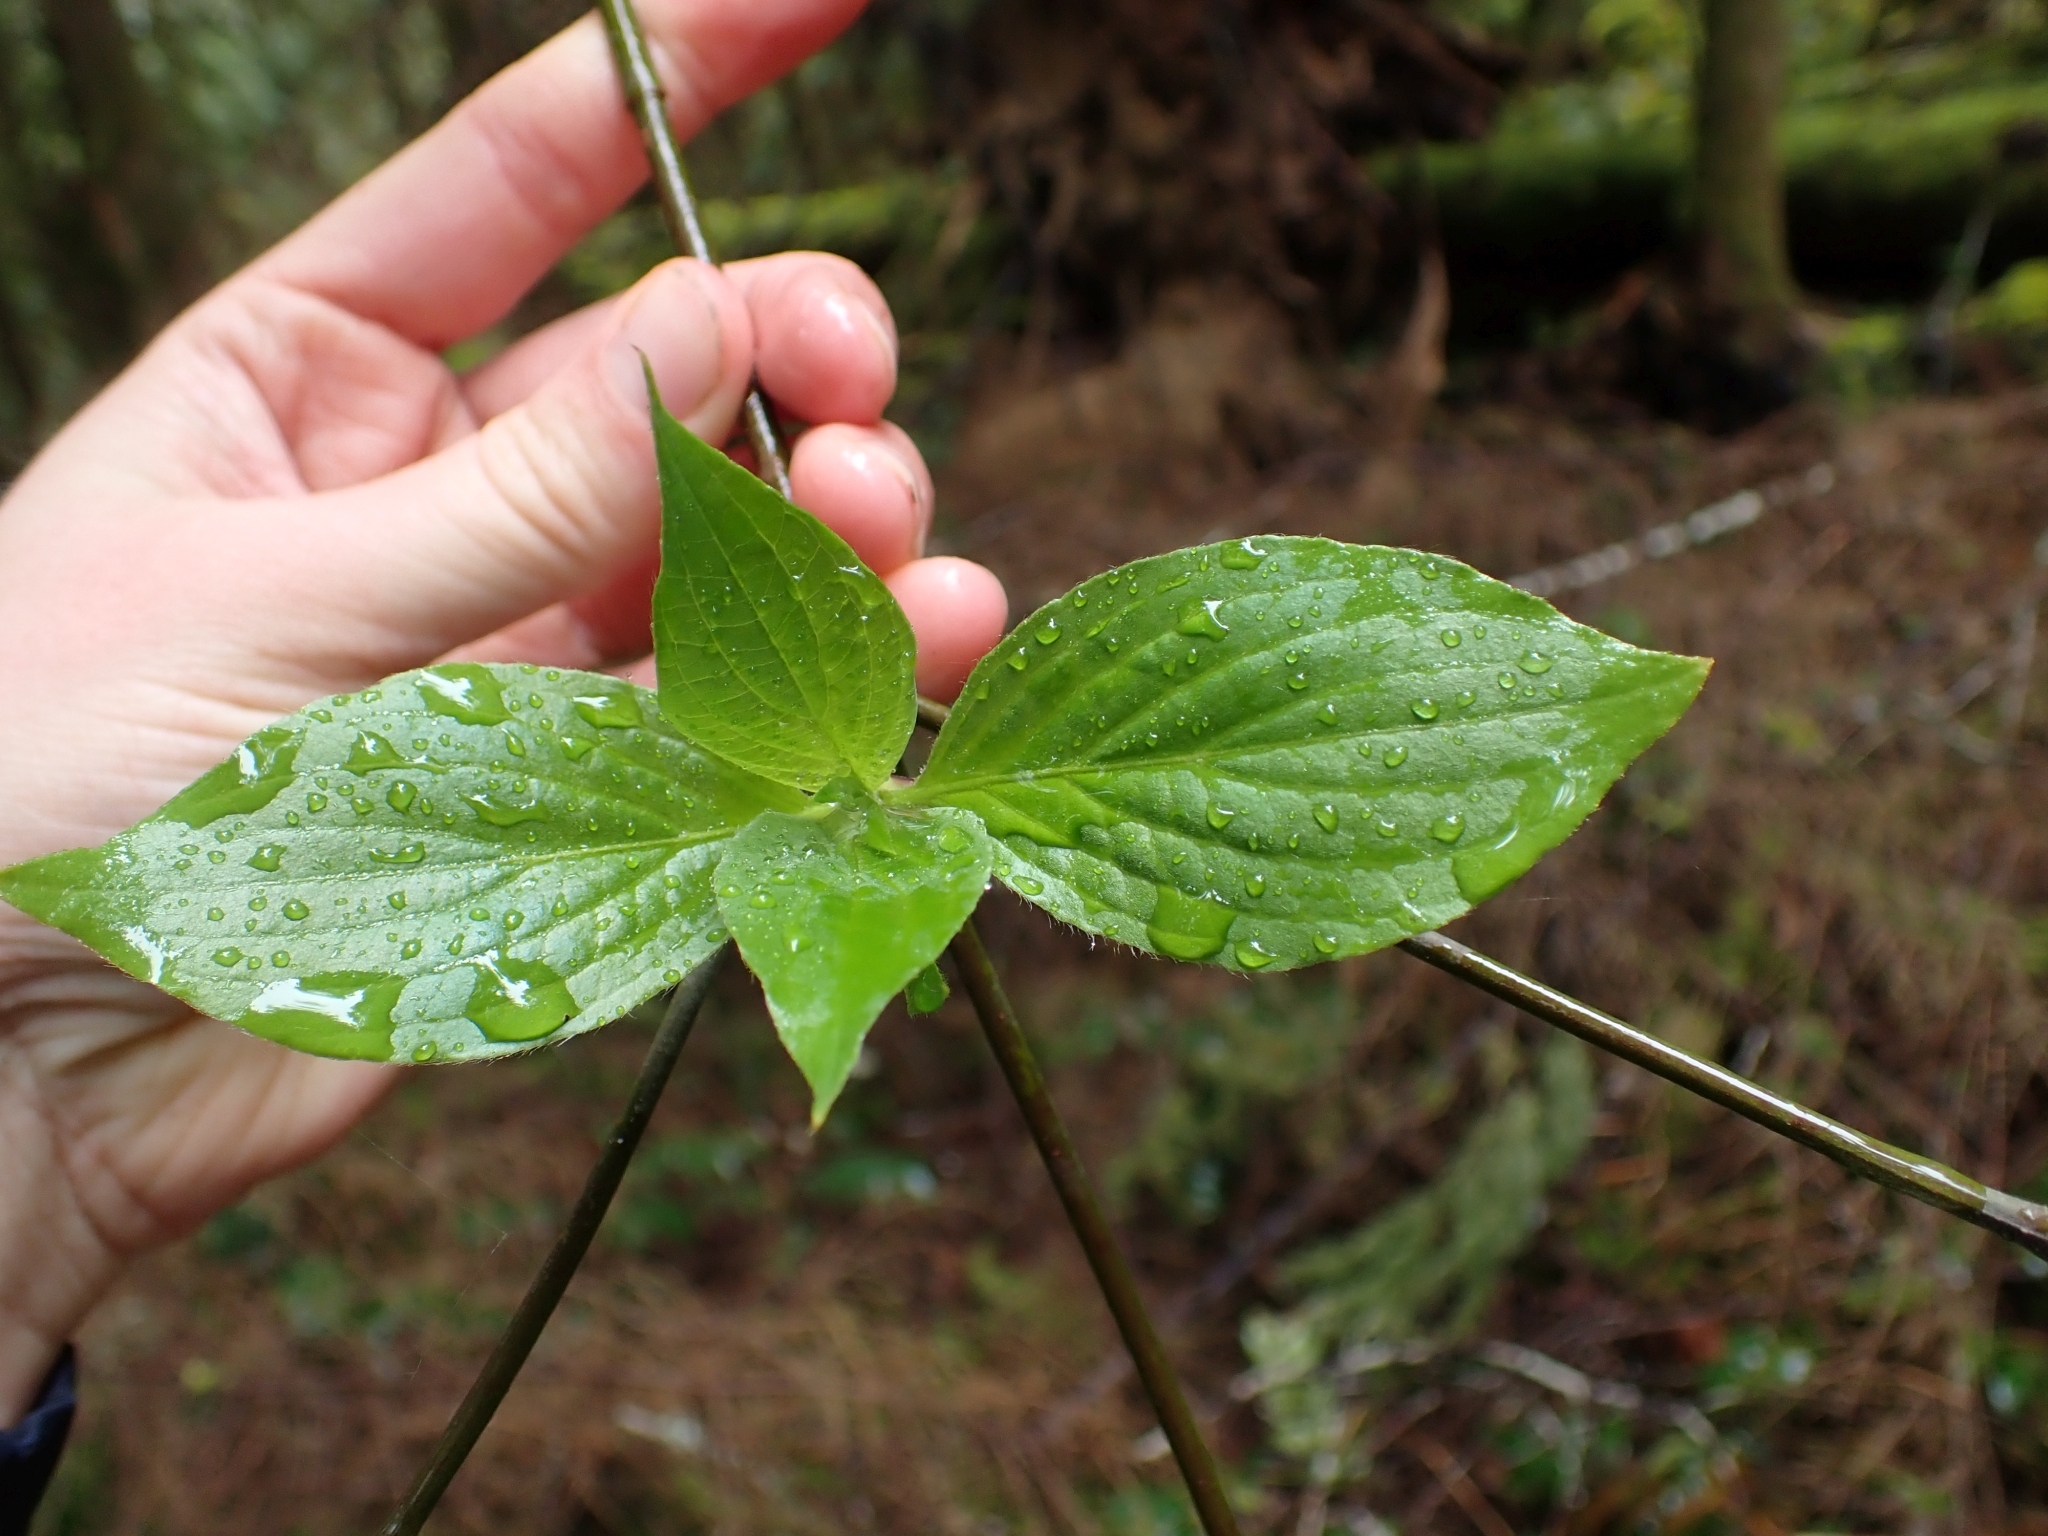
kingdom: Plantae
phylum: Tracheophyta
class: Magnoliopsida
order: Cornales
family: Cornaceae
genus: Cornus
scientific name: Cornus nuttallii
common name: Pacific dogwood
